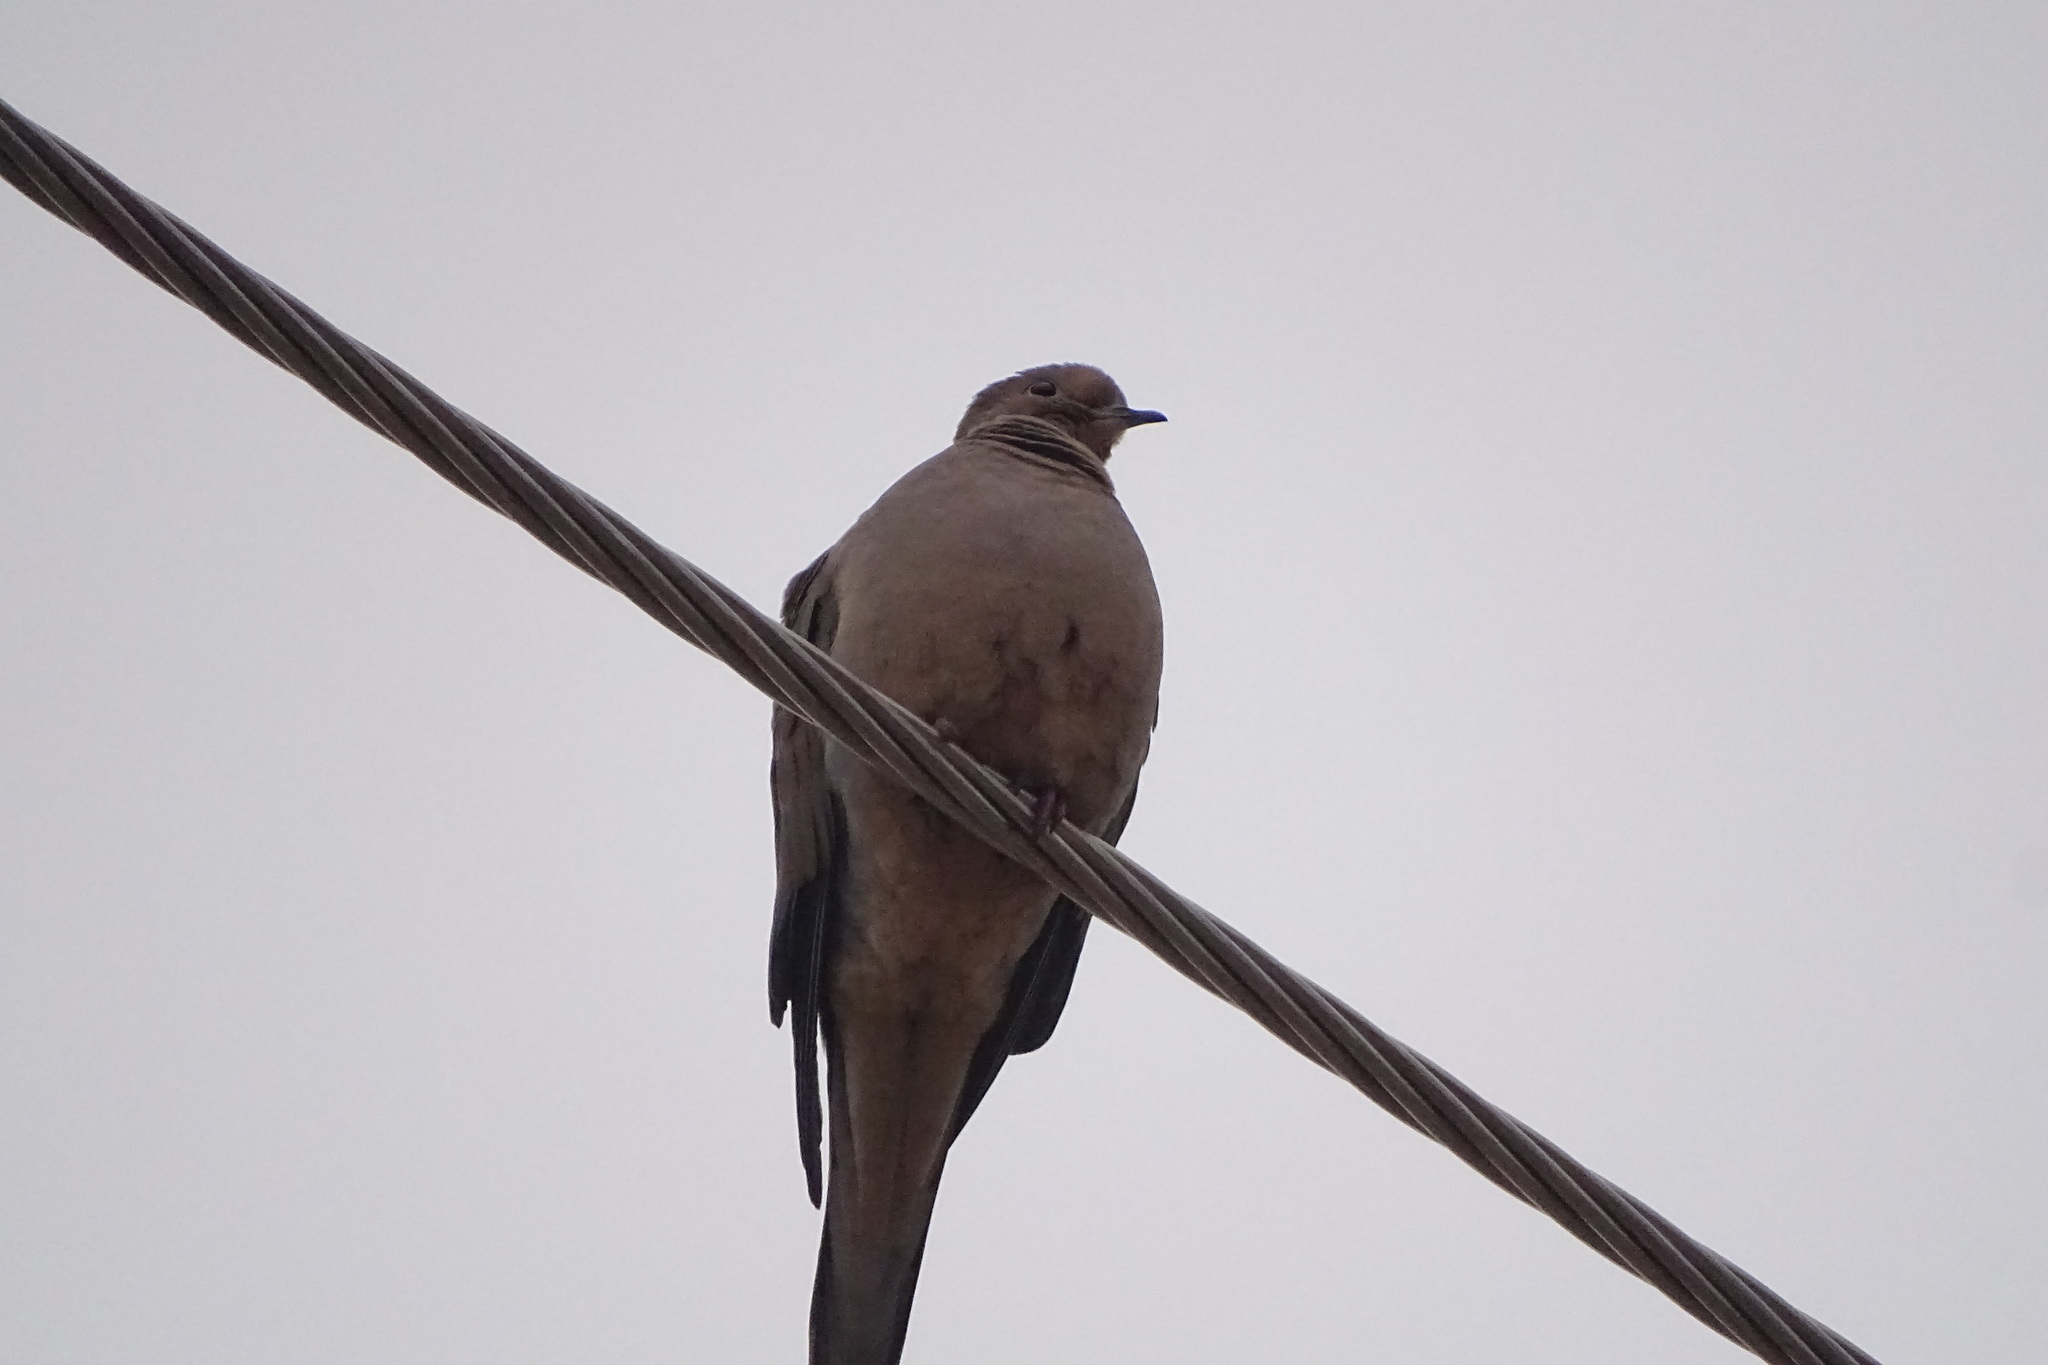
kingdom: Animalia
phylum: Chordata
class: Aves
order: Columbiformes
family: Columbidae
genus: Zenaida
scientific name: Zenaida macroura
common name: Mourning dove
